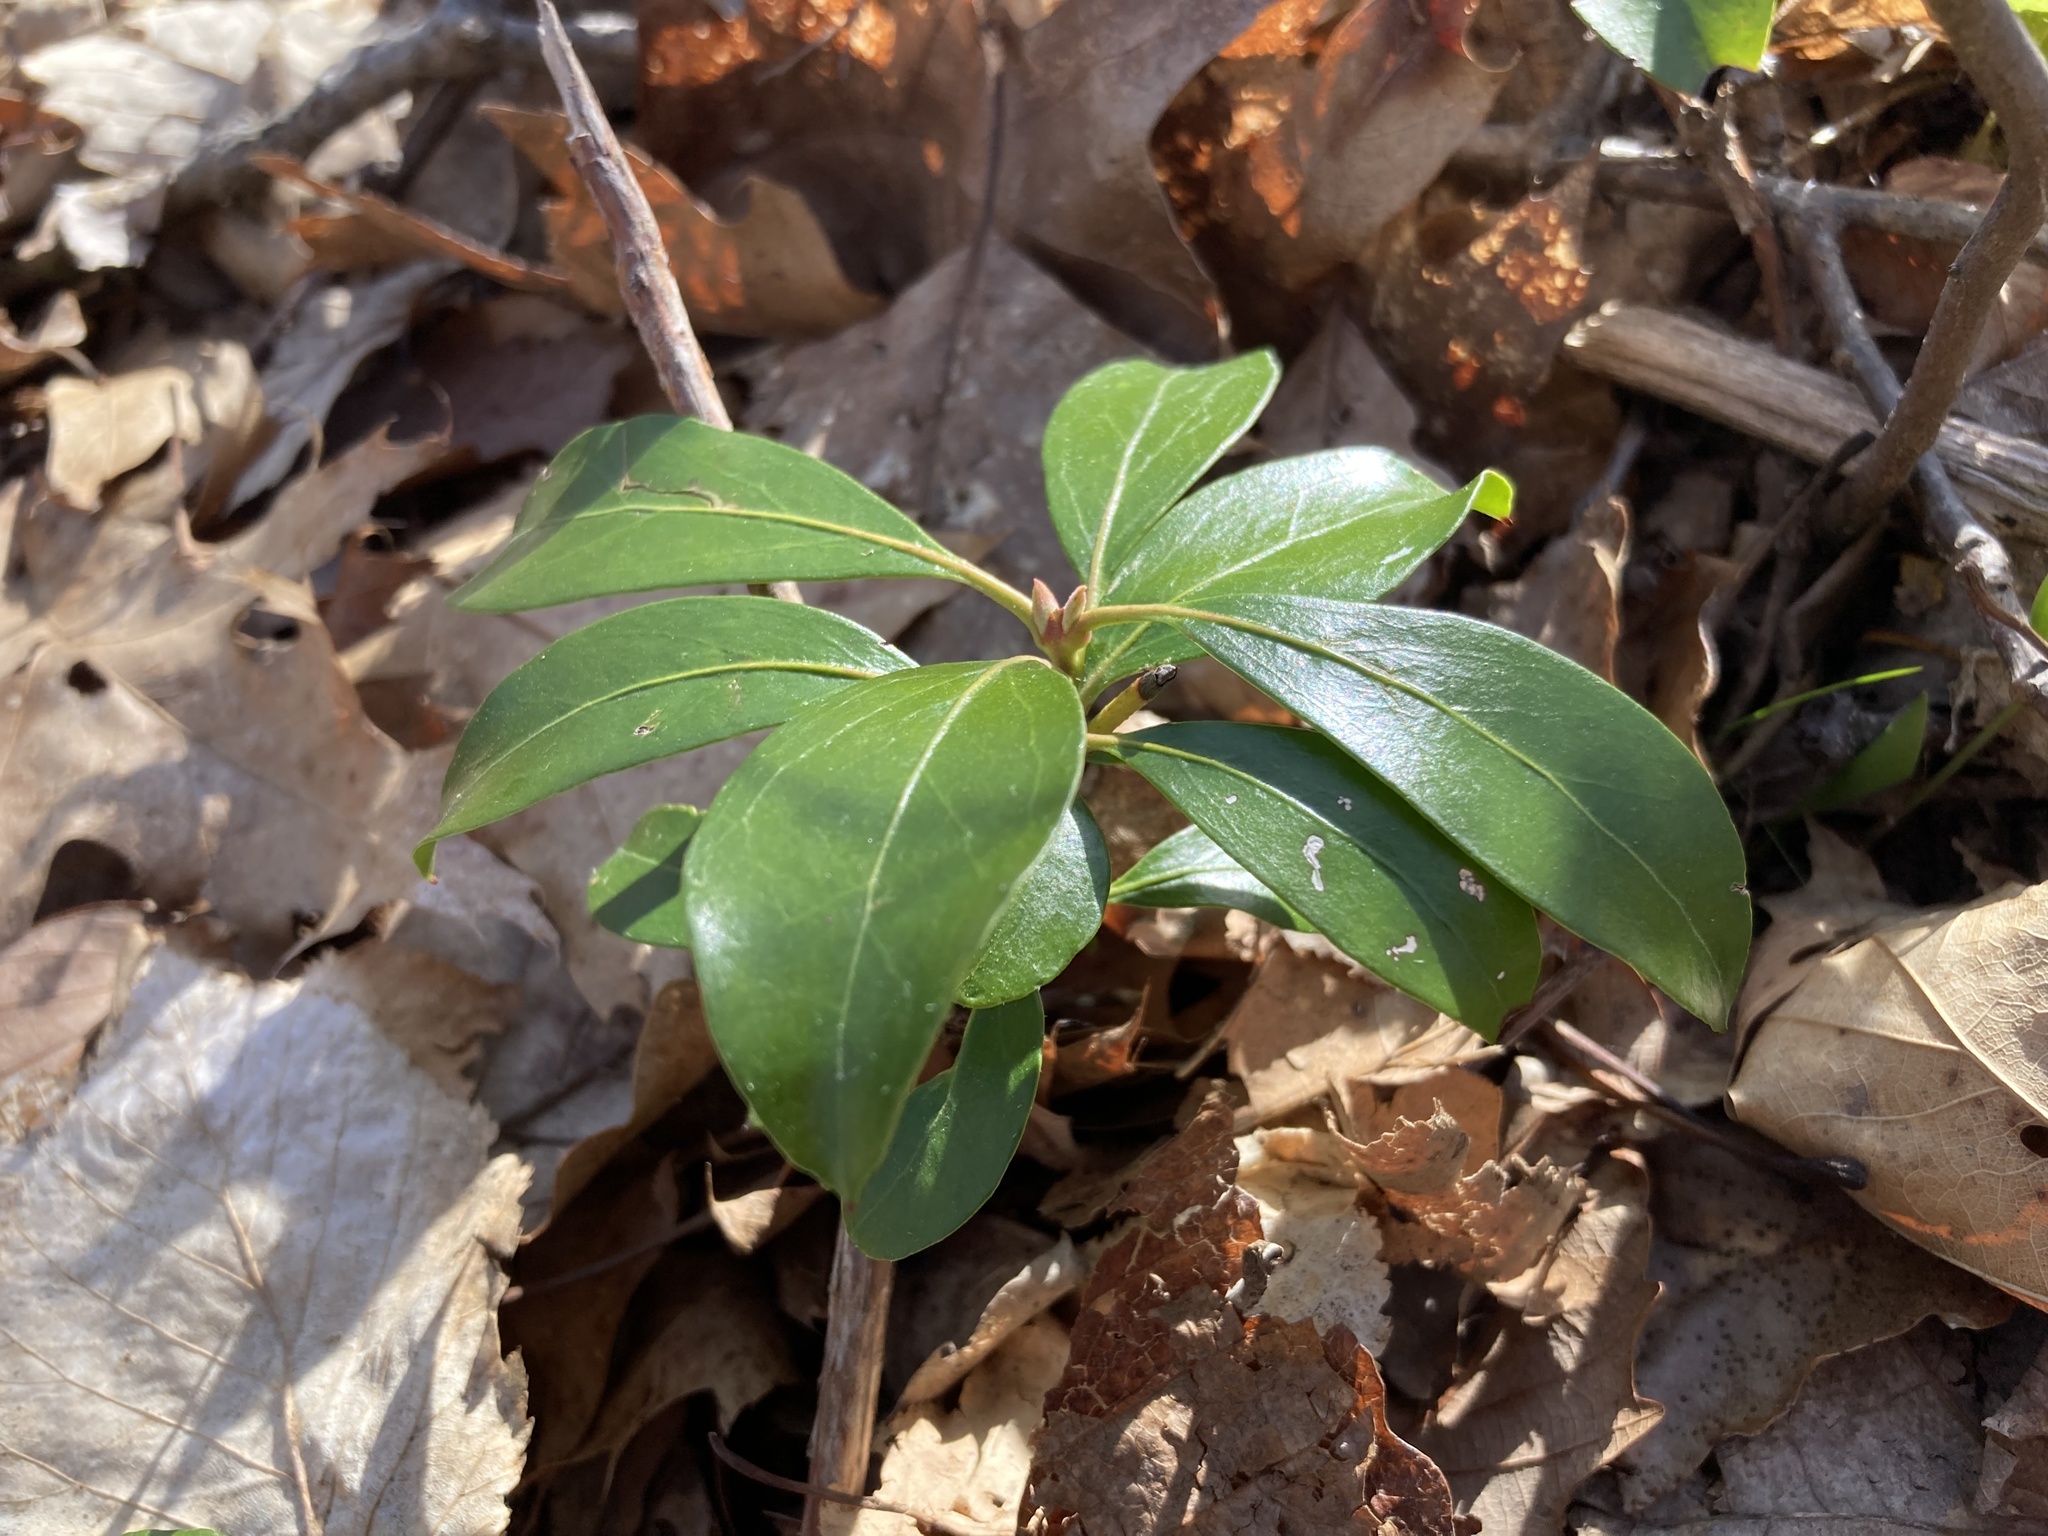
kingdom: Plantae
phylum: Tracheophyta
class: Magnoliopsida
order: Ericales
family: Ericaceae
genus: Kalmia
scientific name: Kalmia latifolia
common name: Mountain-laurel
